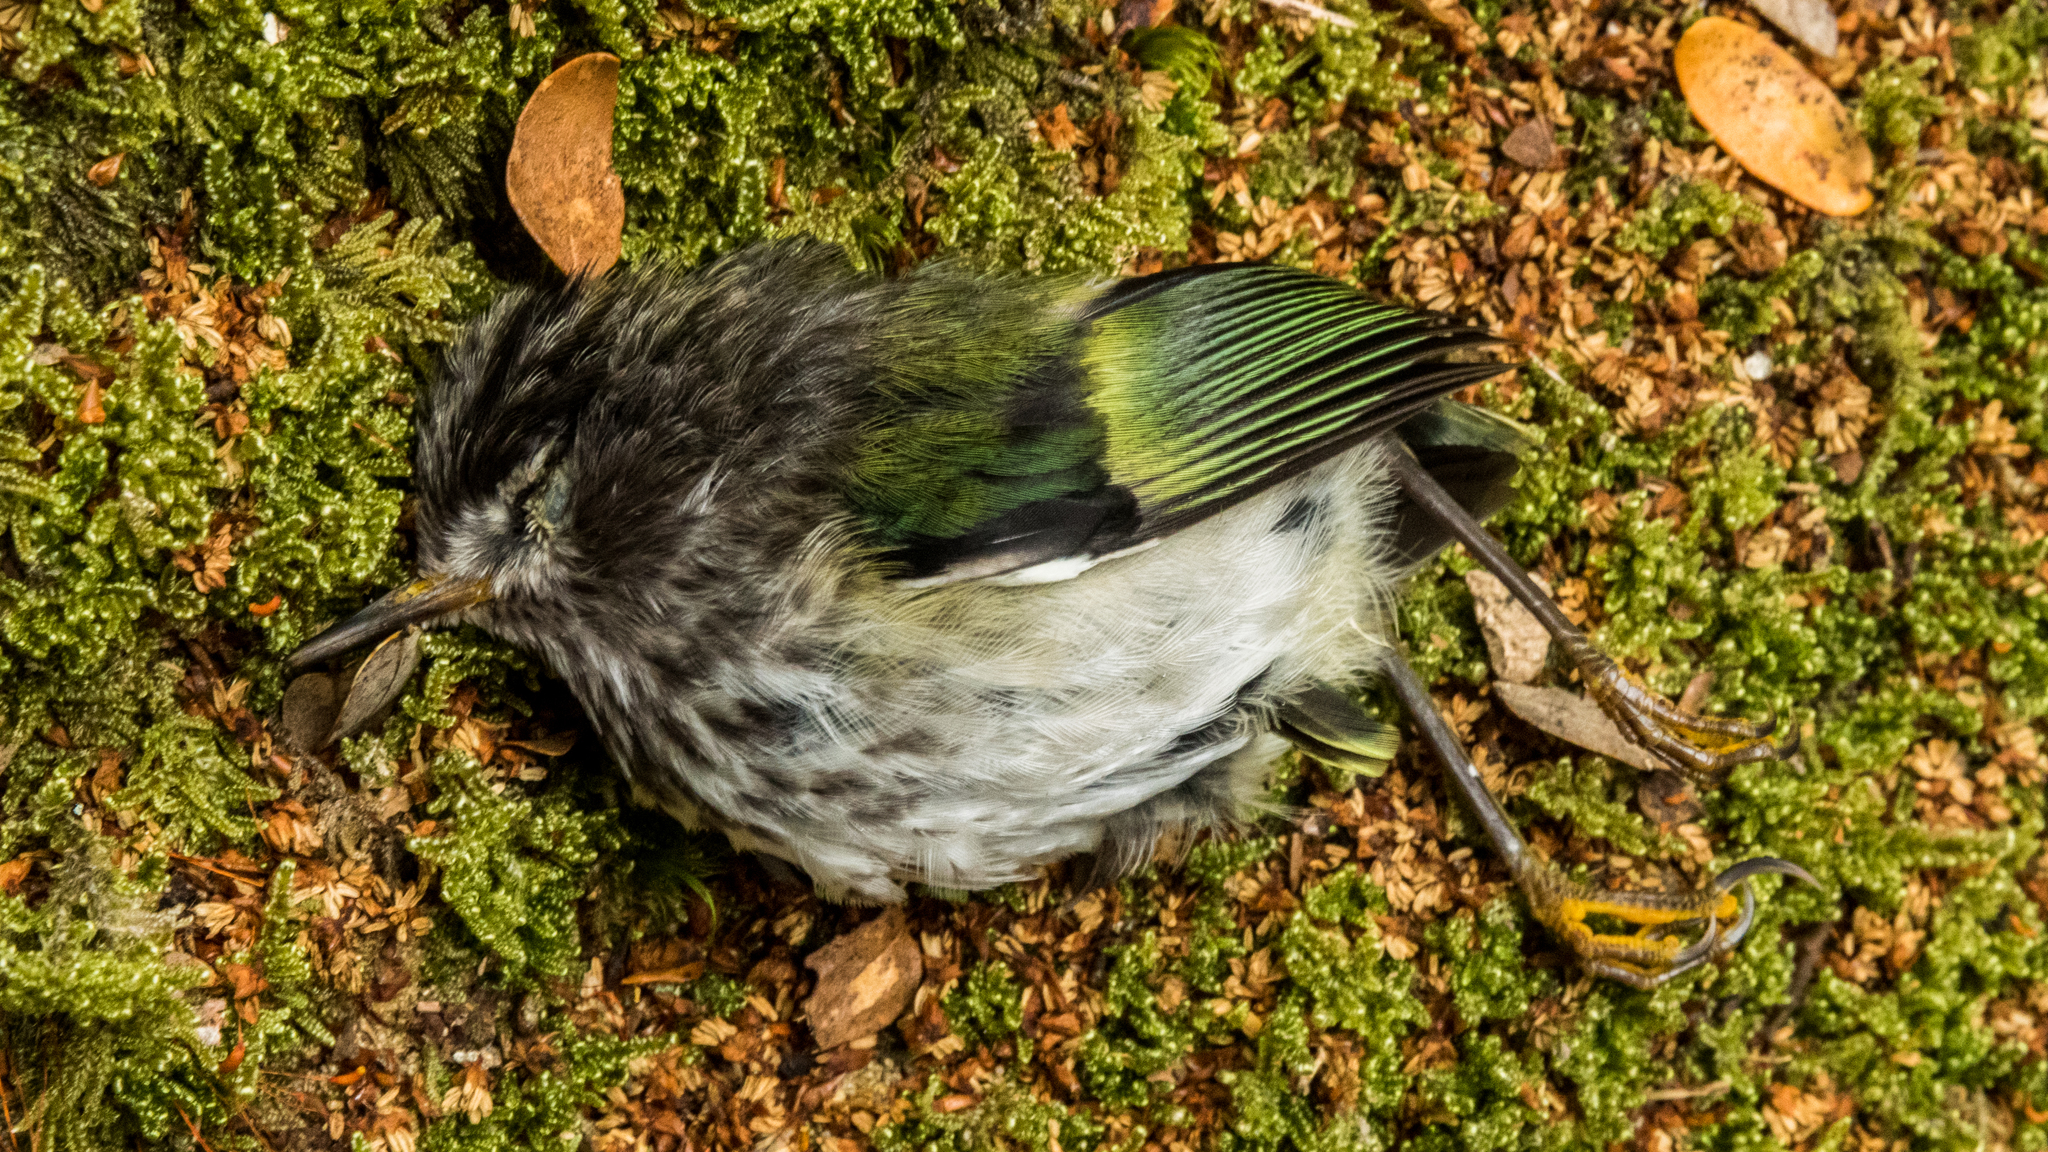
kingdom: Animalia
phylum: Chordata
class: Aves
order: Passeriformes
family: Acanthisittidae
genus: Acanthisitta
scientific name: Acanthisitta chloris
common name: Rifleman
